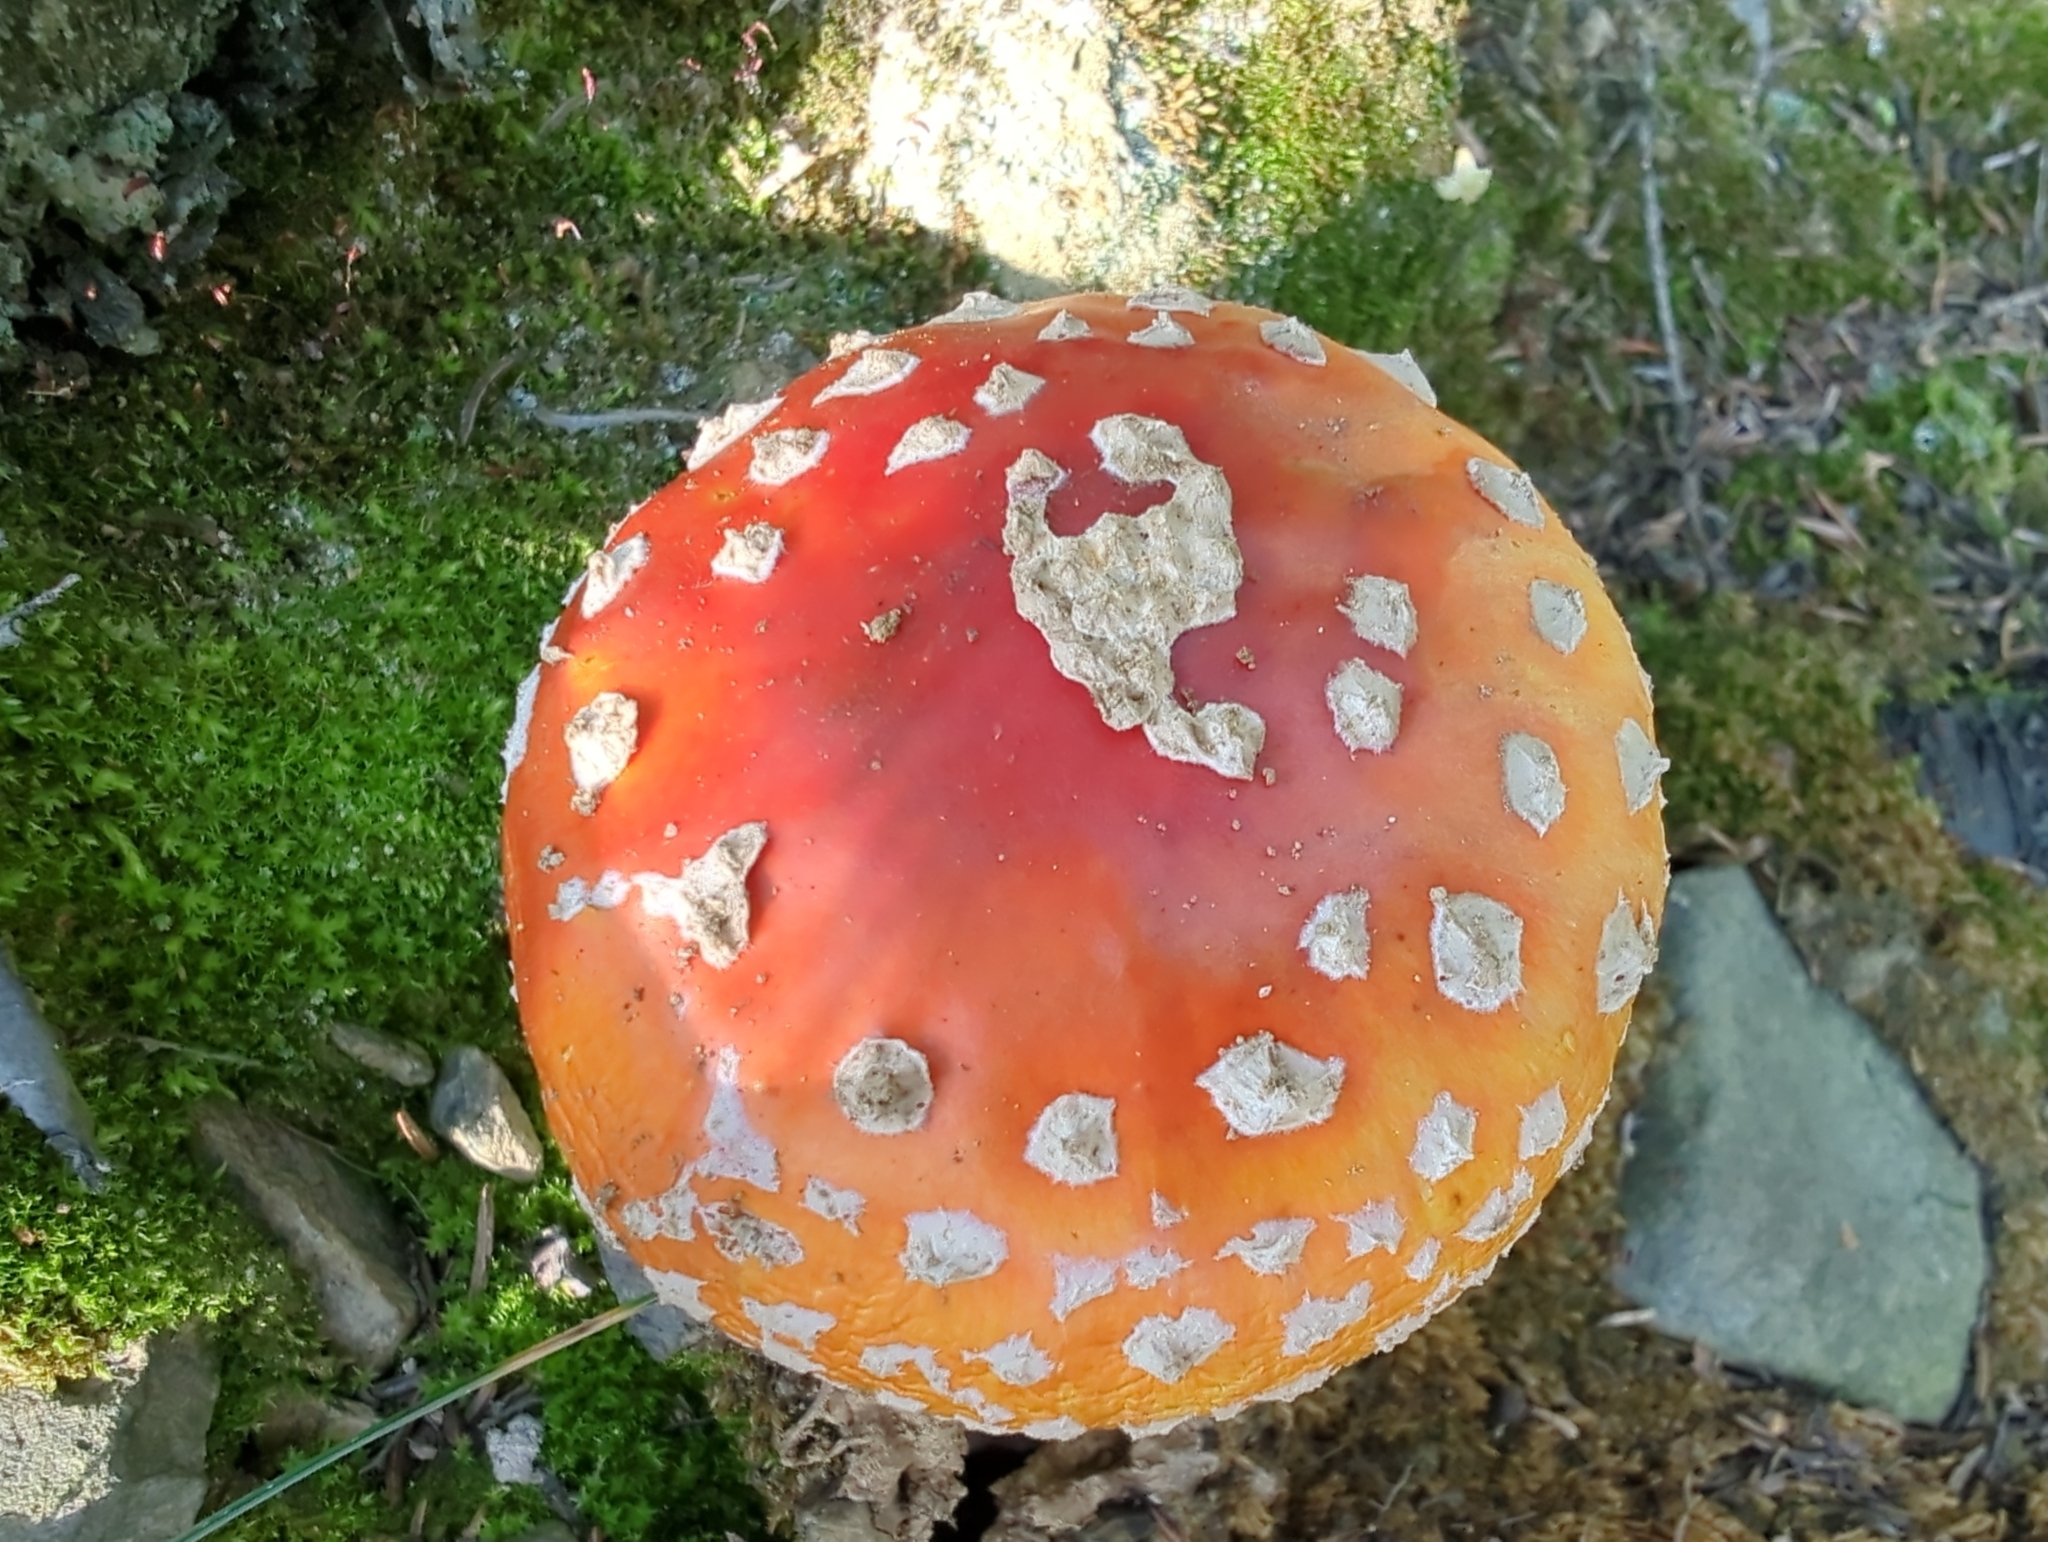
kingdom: Fungi
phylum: Basidiomycota
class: Agaricomycetes
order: Agaricales
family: Amanitaceae
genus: Amanita
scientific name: Amanita muscaria
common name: Fly agaric
